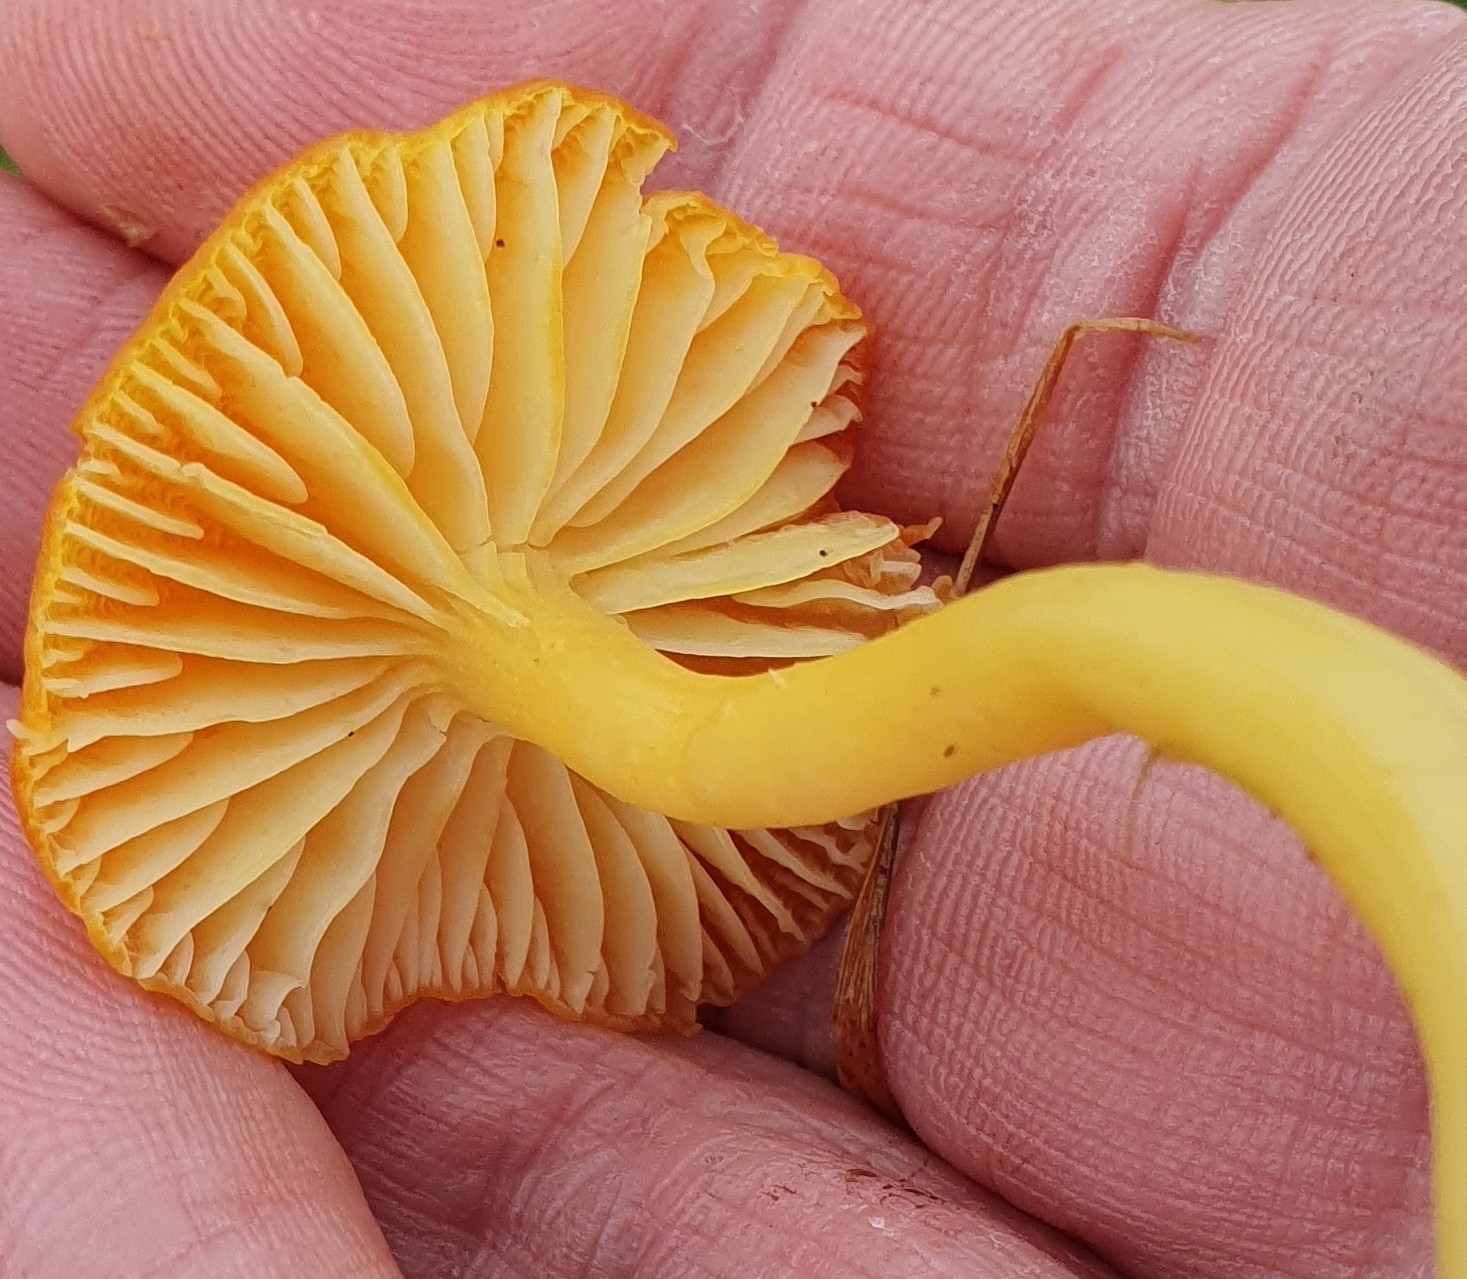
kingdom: Fungi
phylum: Basidiomycota
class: Agaricomycetes
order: Agaricales
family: Hygrophoraceae
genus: Hygrocybe
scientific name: Hygrocybe ceracea
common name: Butter waxcap
